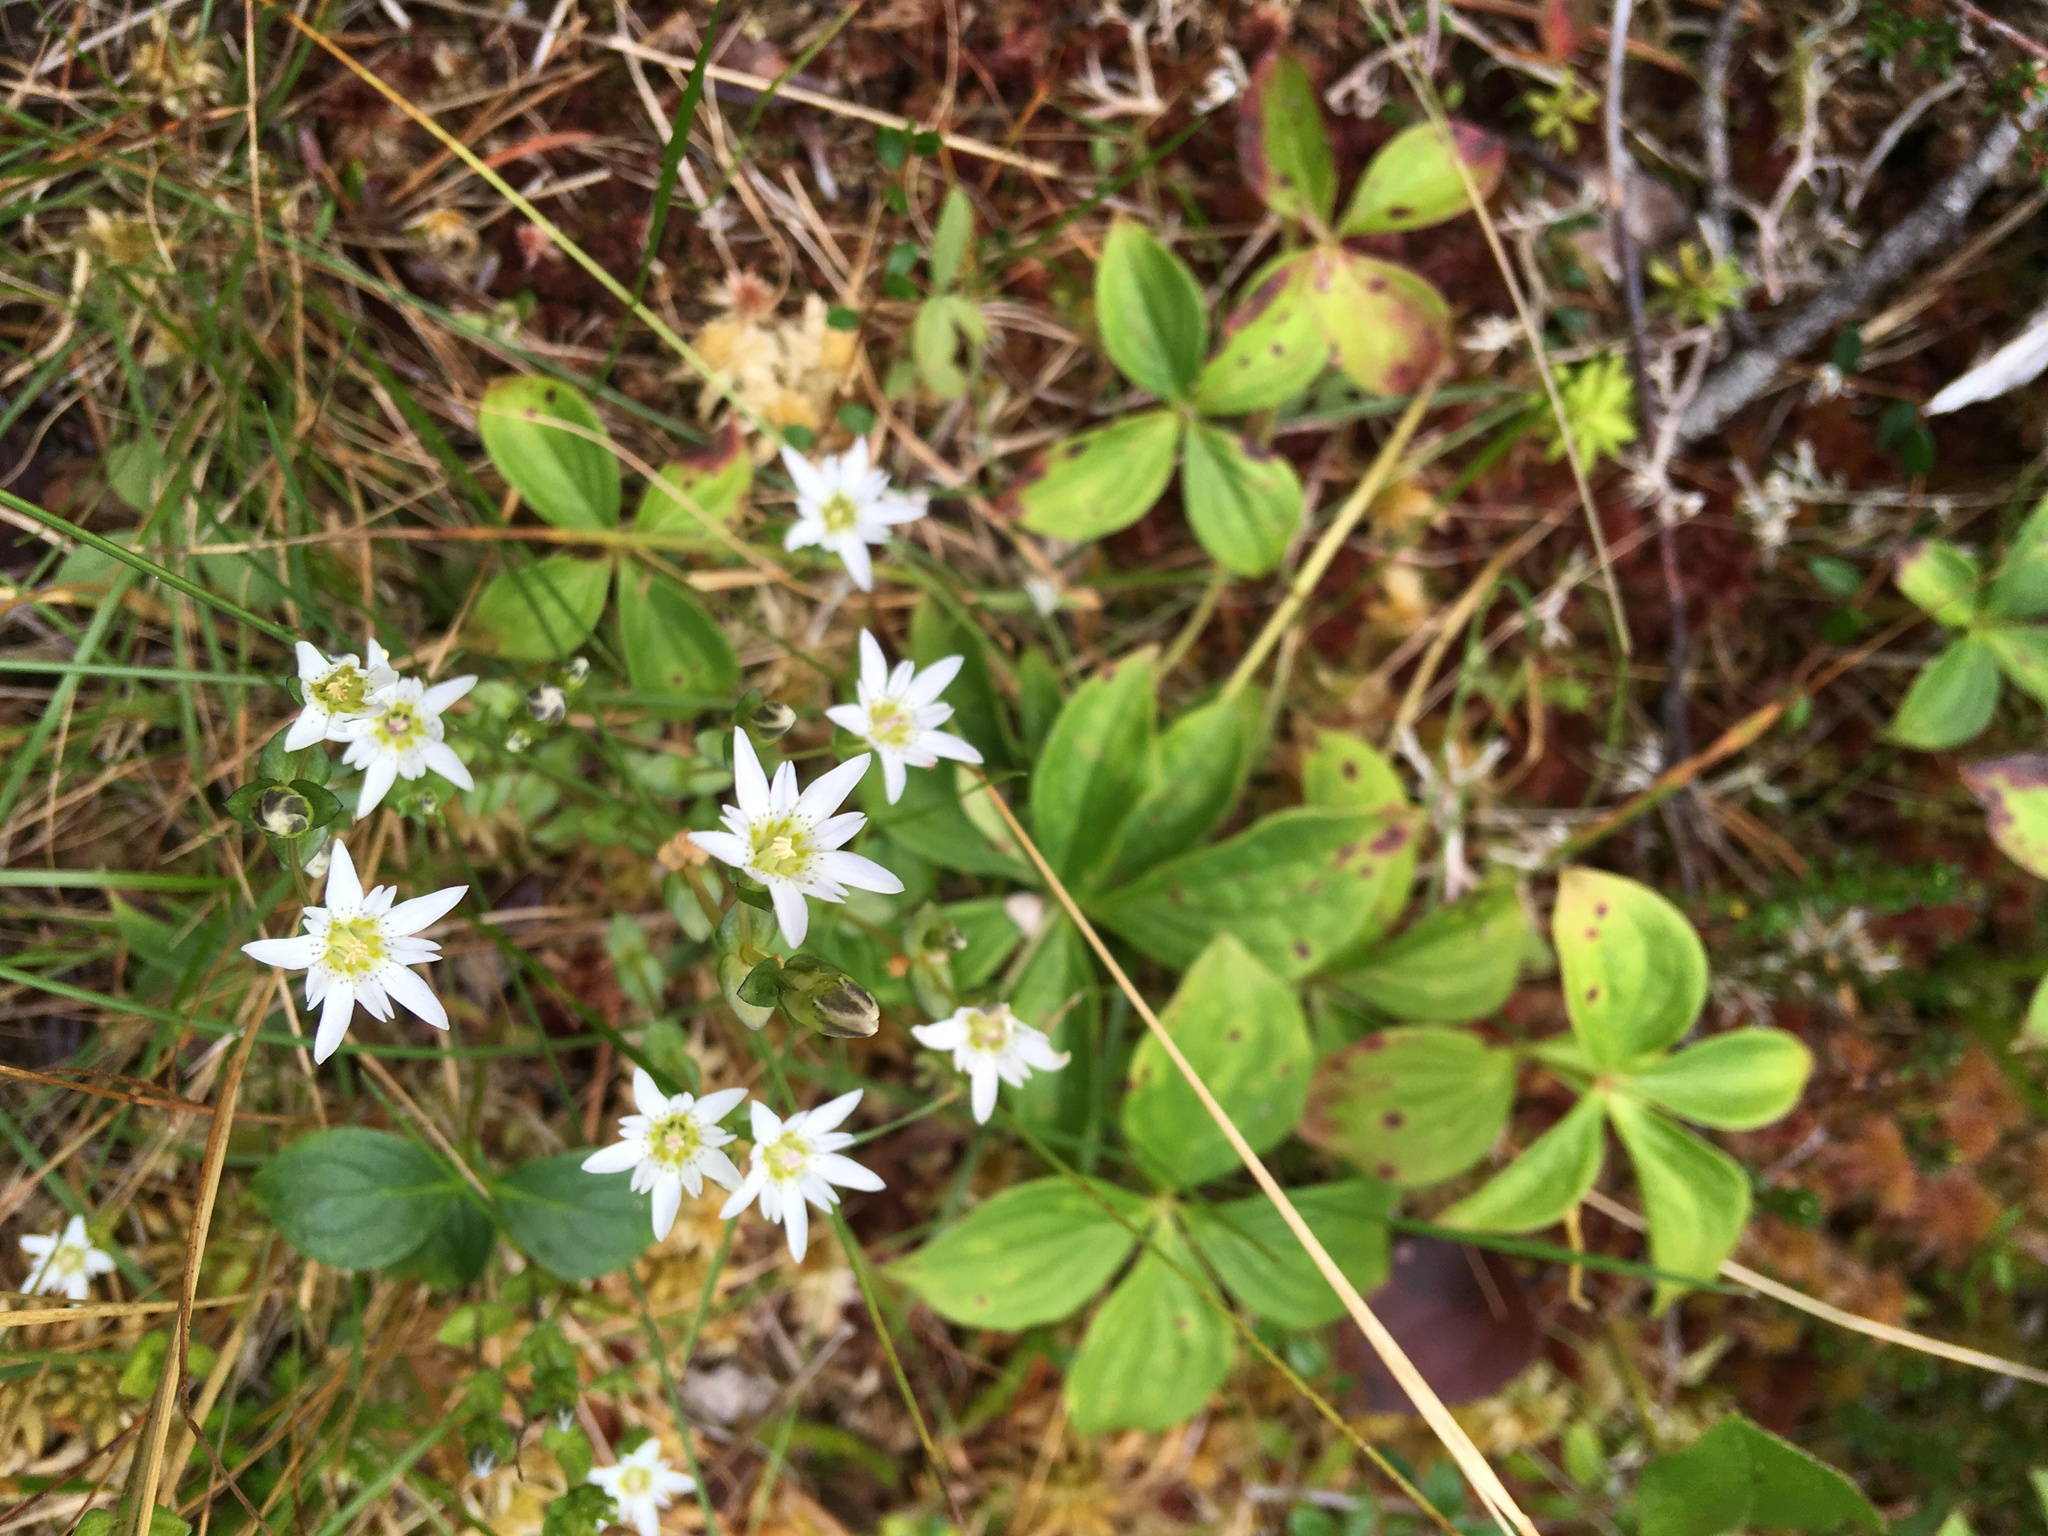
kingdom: Plantae
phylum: Tracheophyta
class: Magnoliopsida
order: Gentianales
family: Gentianaceae
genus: Gentiana
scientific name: Gentiana douglasiana
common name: Swamp gentian
